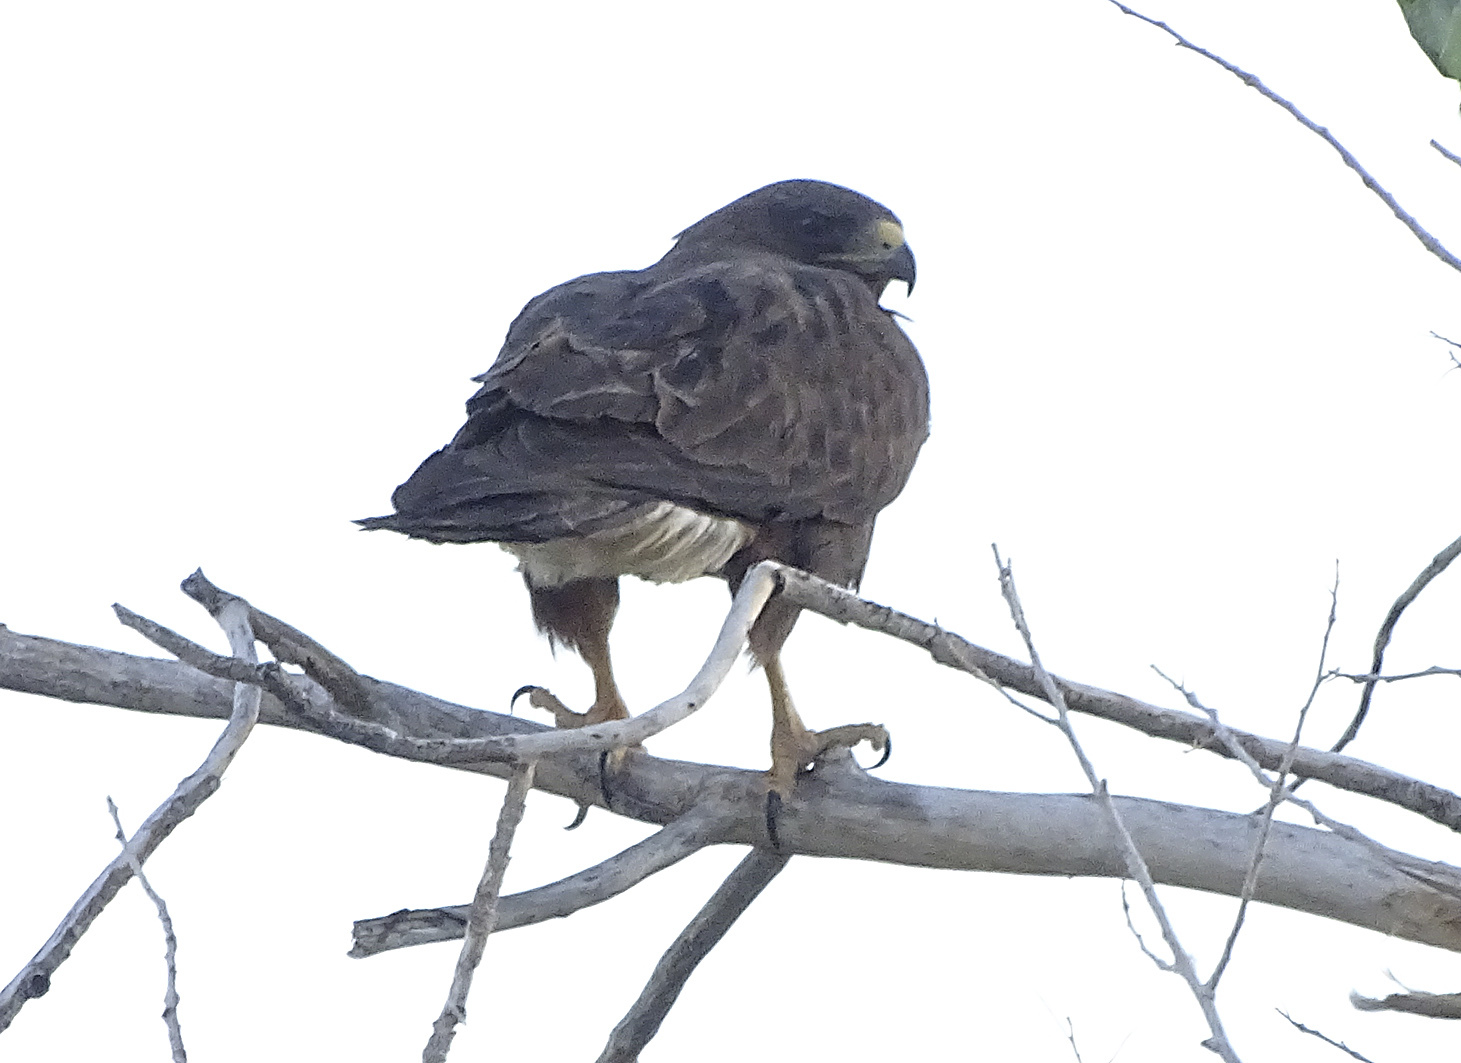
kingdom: Animalia
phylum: Chordata
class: Aves
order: Accipitriformes
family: Accipitridae
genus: Buteo
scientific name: Buteo swainsoni
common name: Swainson's hawk
